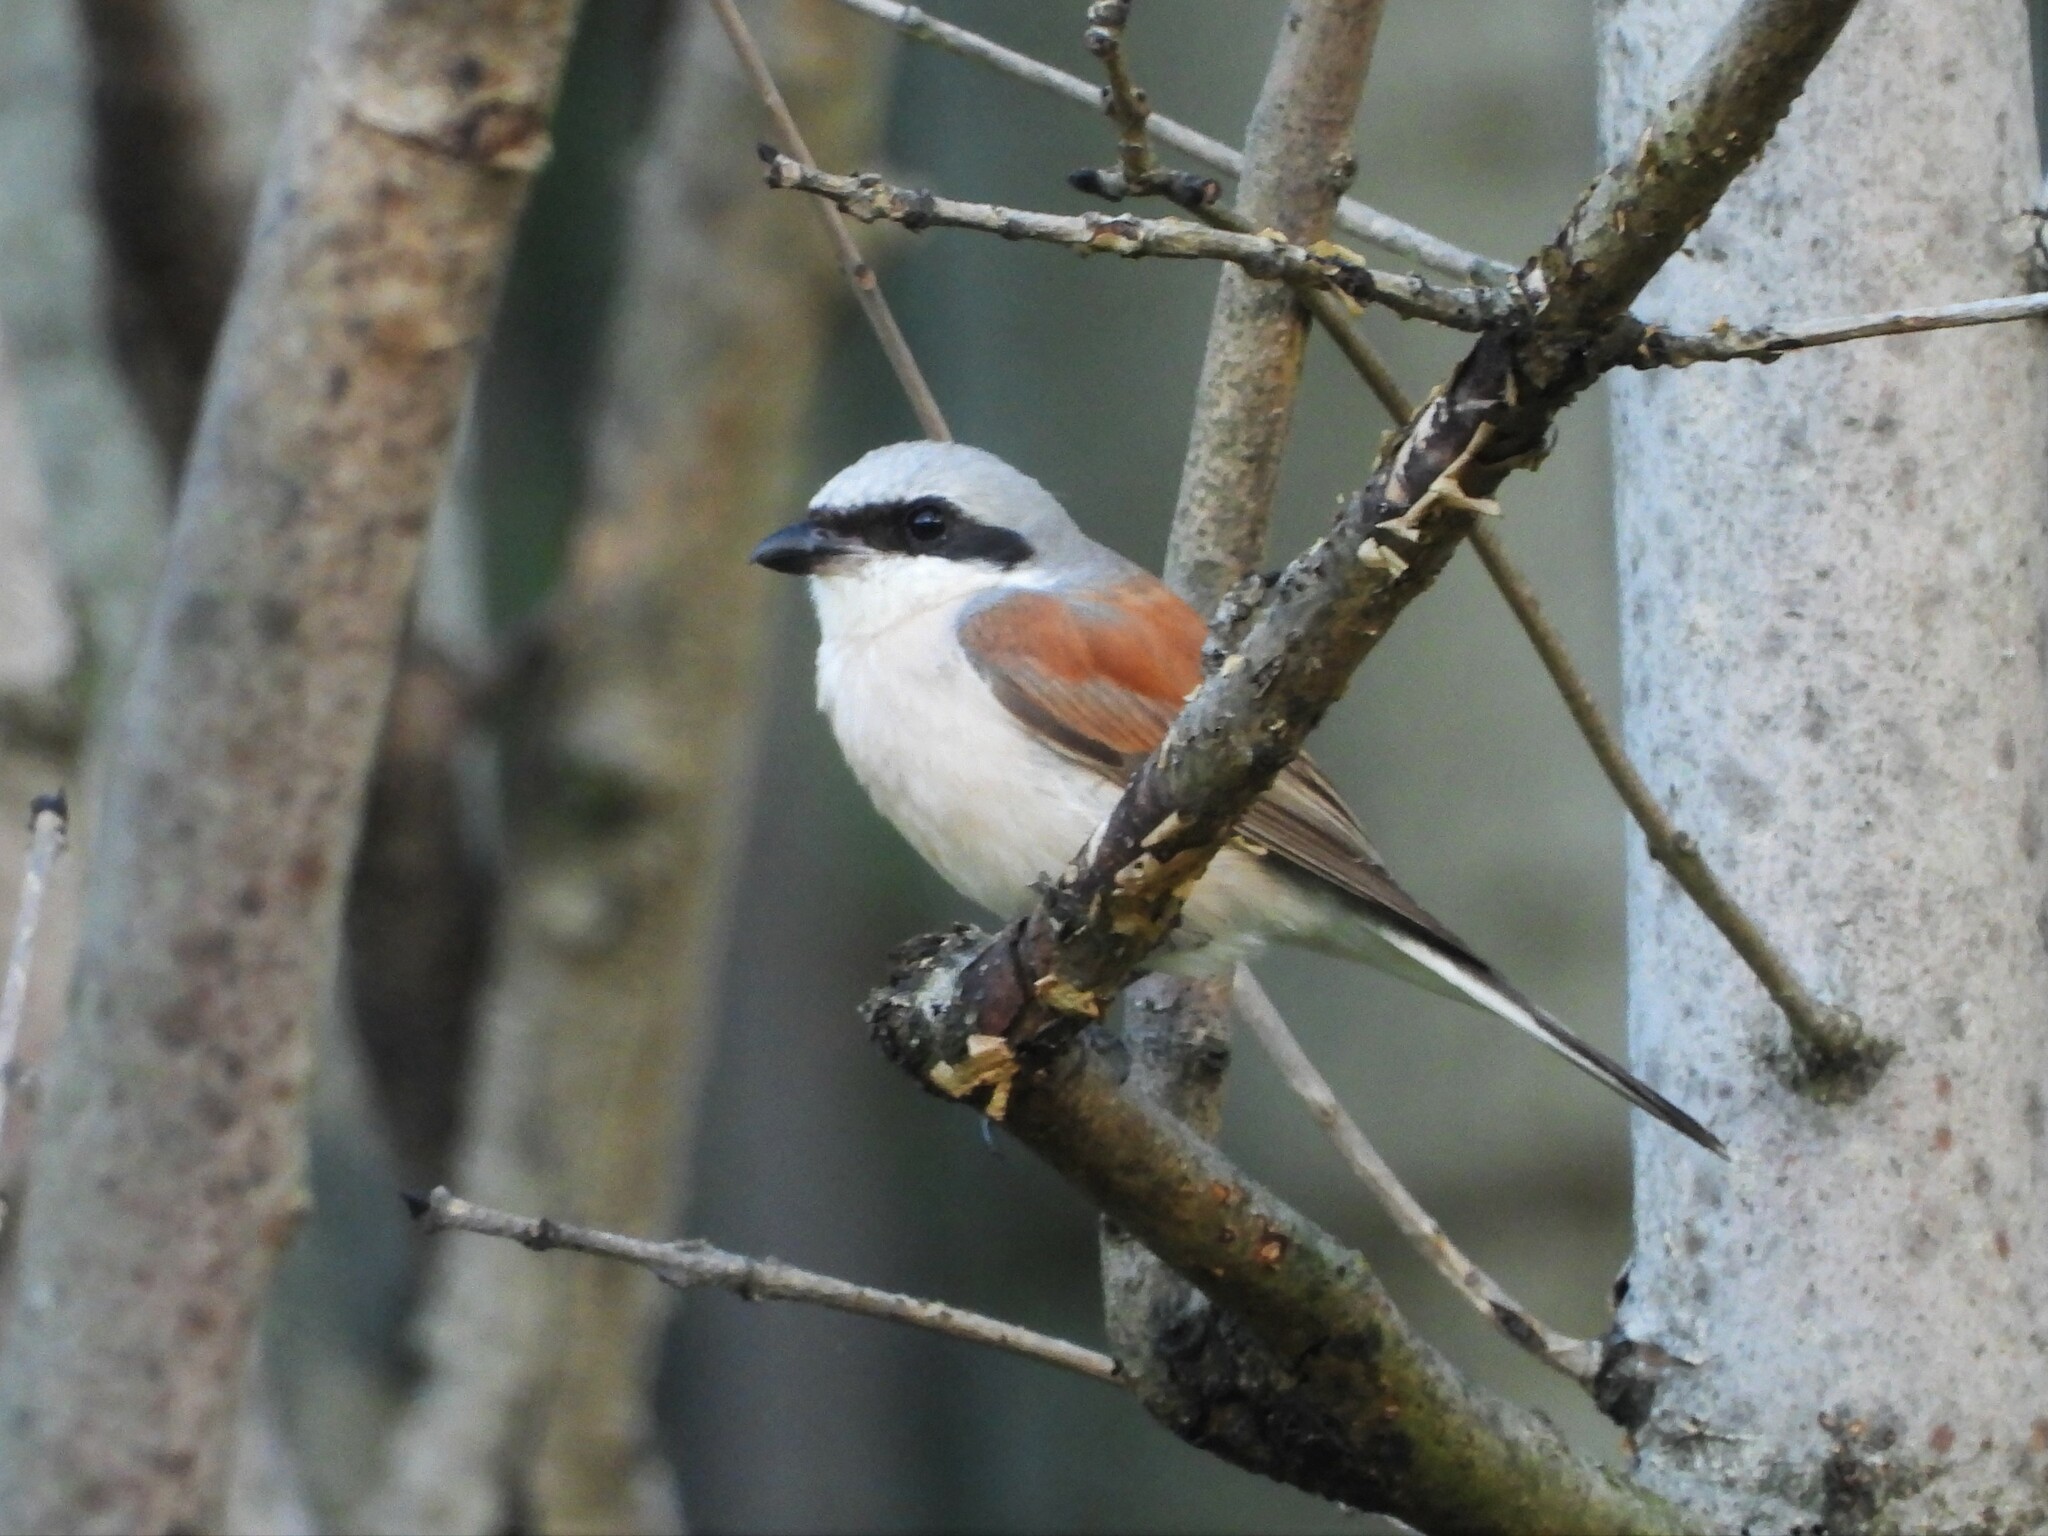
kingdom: Animalia
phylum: Chordata
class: Aves
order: Passeriformes
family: Laniidae
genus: Lanius
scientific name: Lanius collurio
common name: Red-backed shrike
